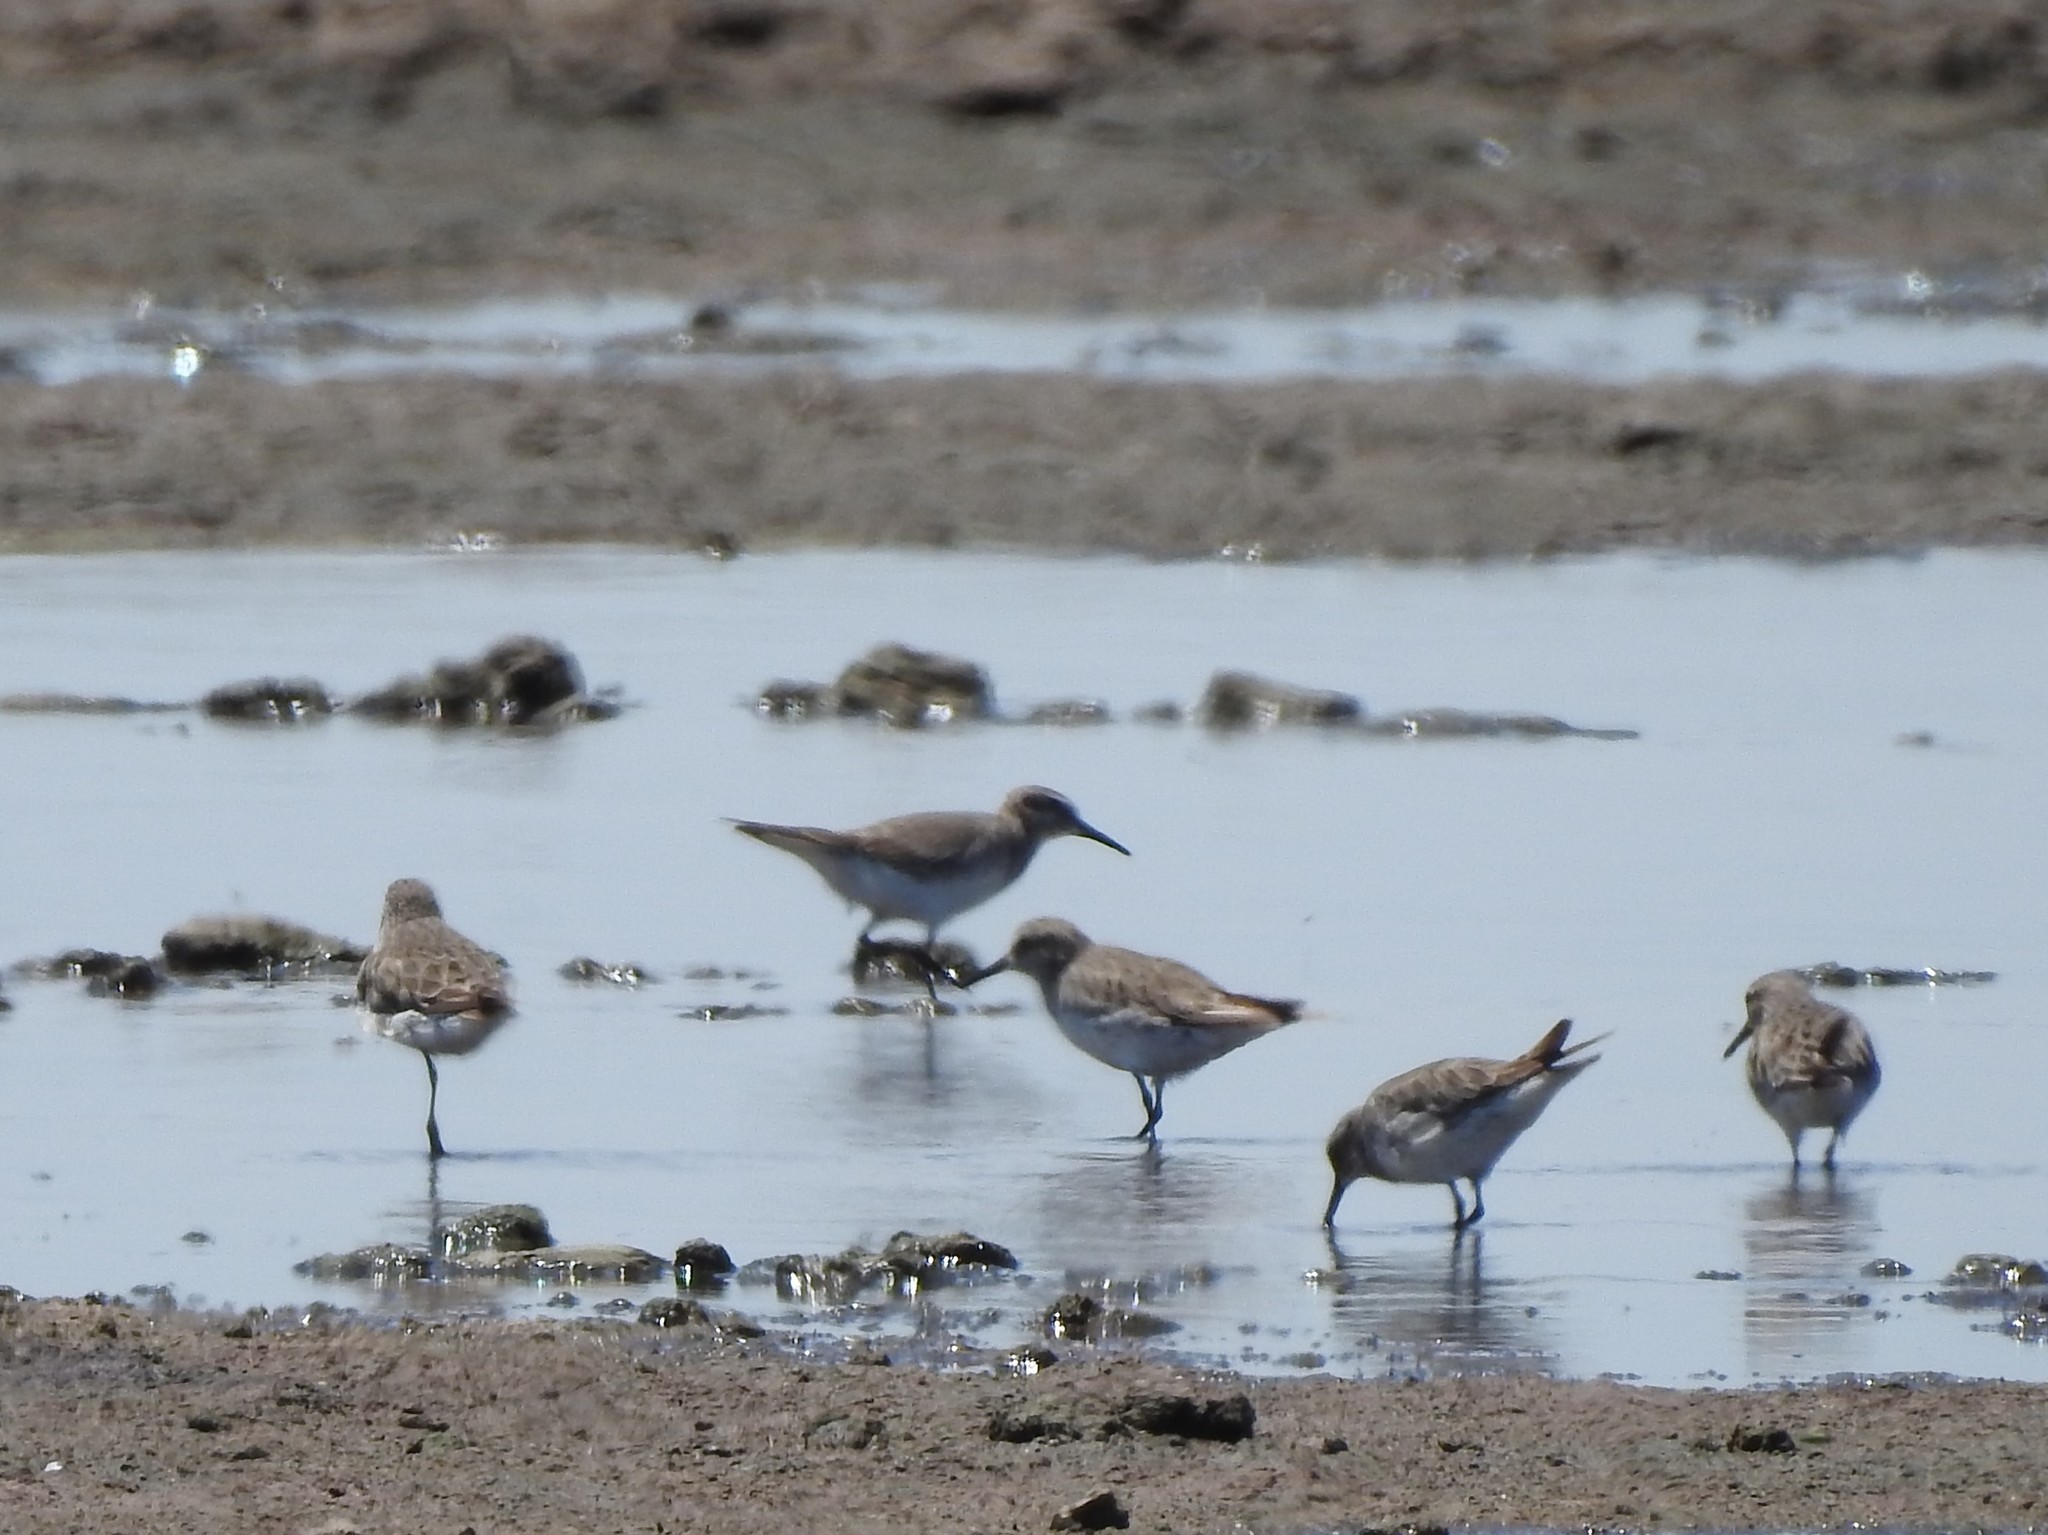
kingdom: Animalia
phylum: Chordata
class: Aves
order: Charadriiformes
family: Scolopacidae
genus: Calidris
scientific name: Calidris fuscicollis
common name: White-rumped sandpiper
